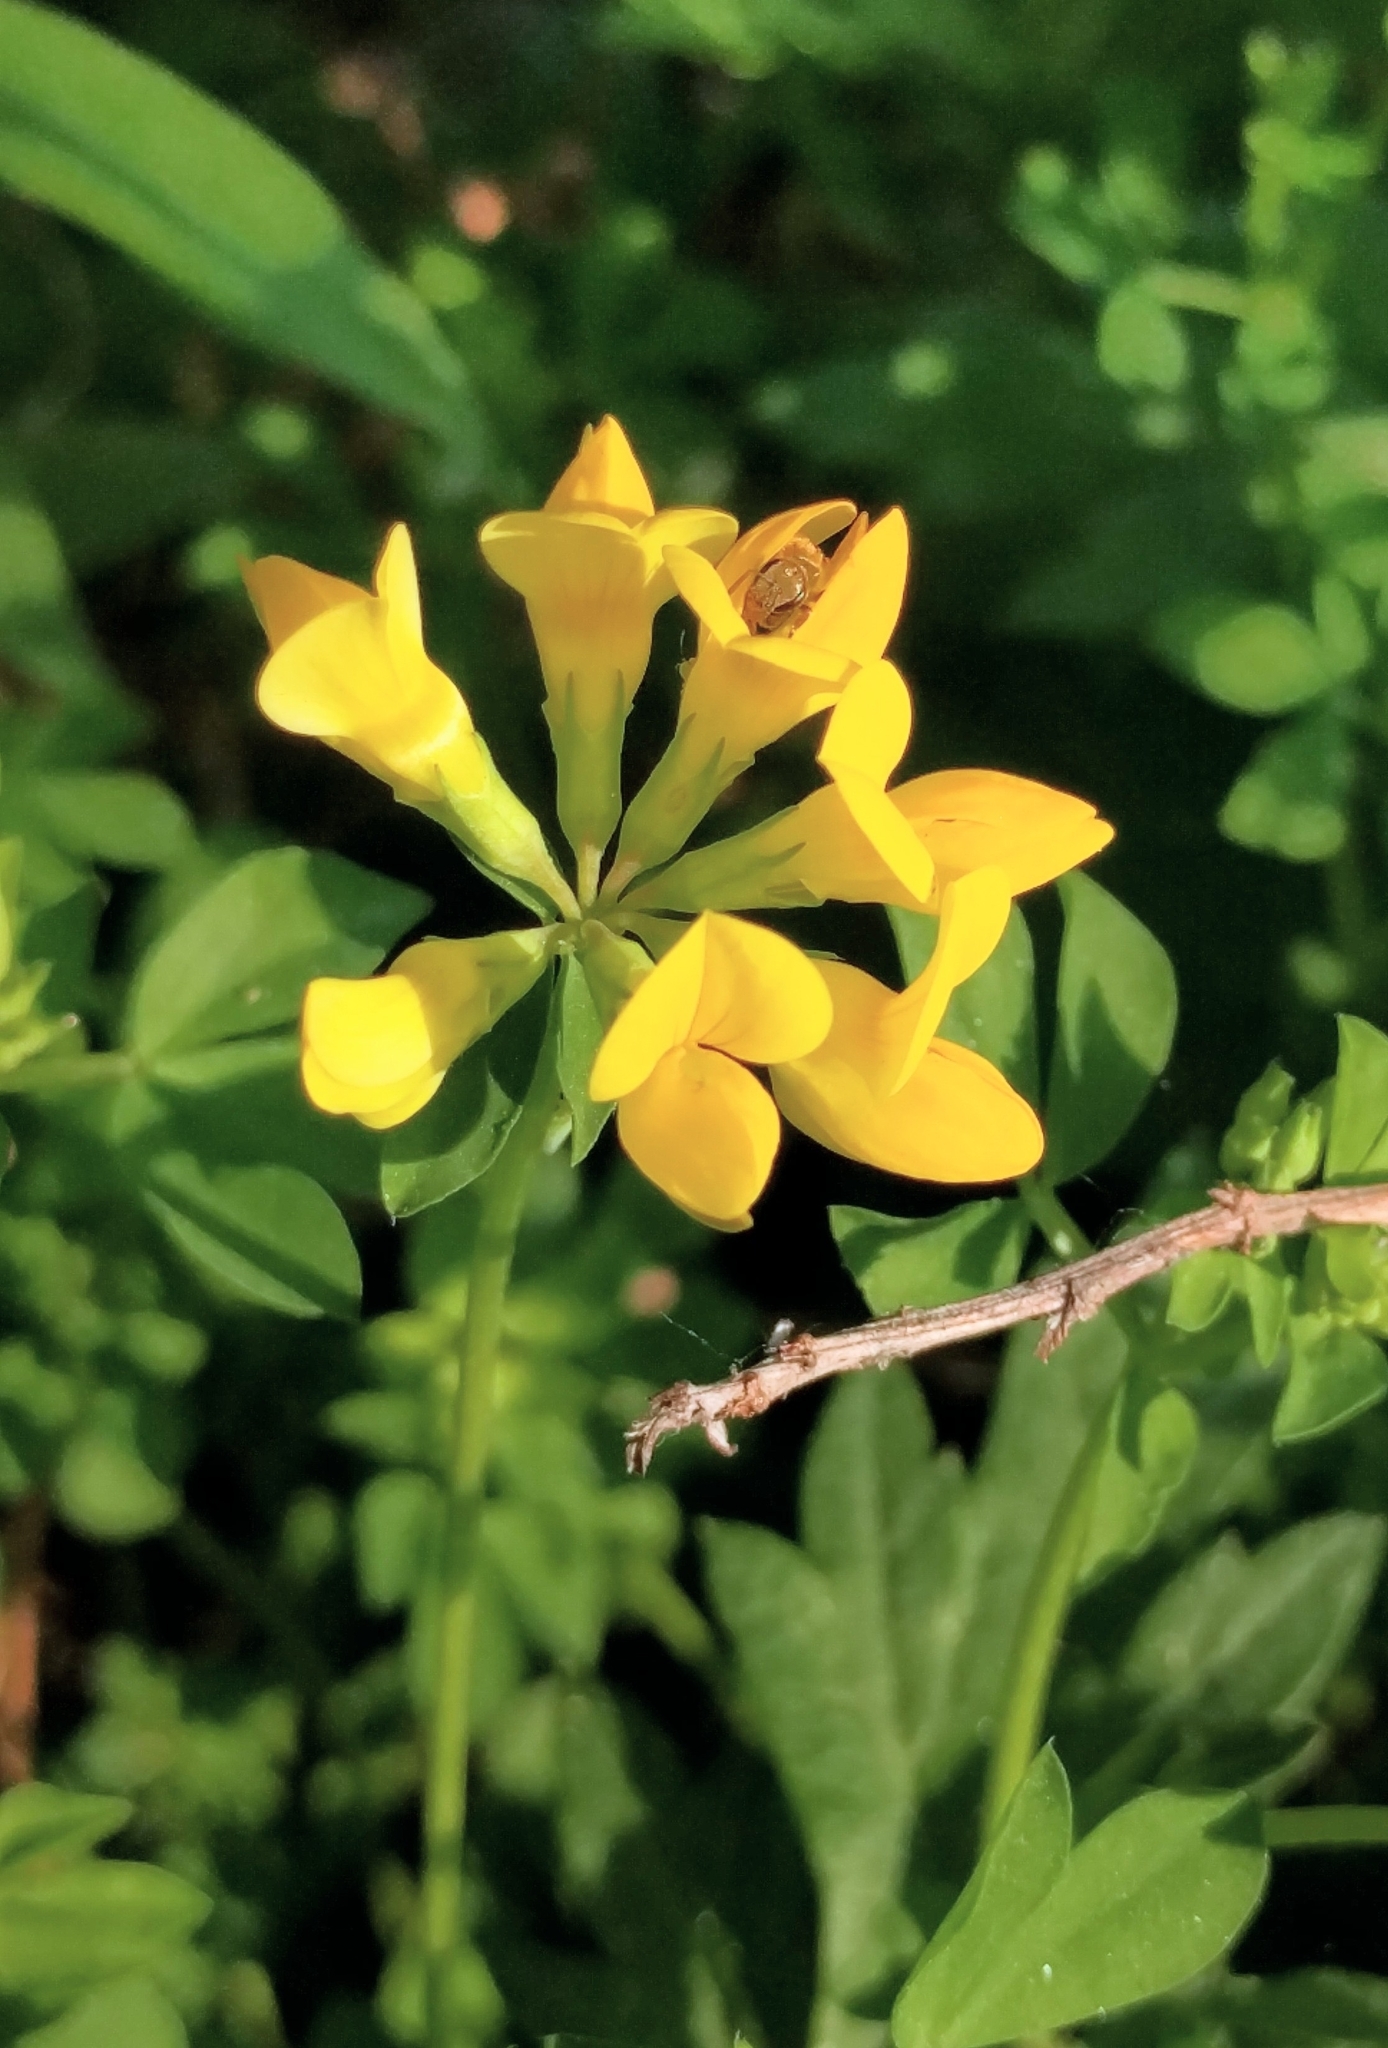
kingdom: Plantae
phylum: Tracheophyta
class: Magnoliopsida
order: Fabales
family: Fabaceae
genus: Lotus
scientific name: Lotus corniculatus
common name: Common bird's-foot-trefoil
